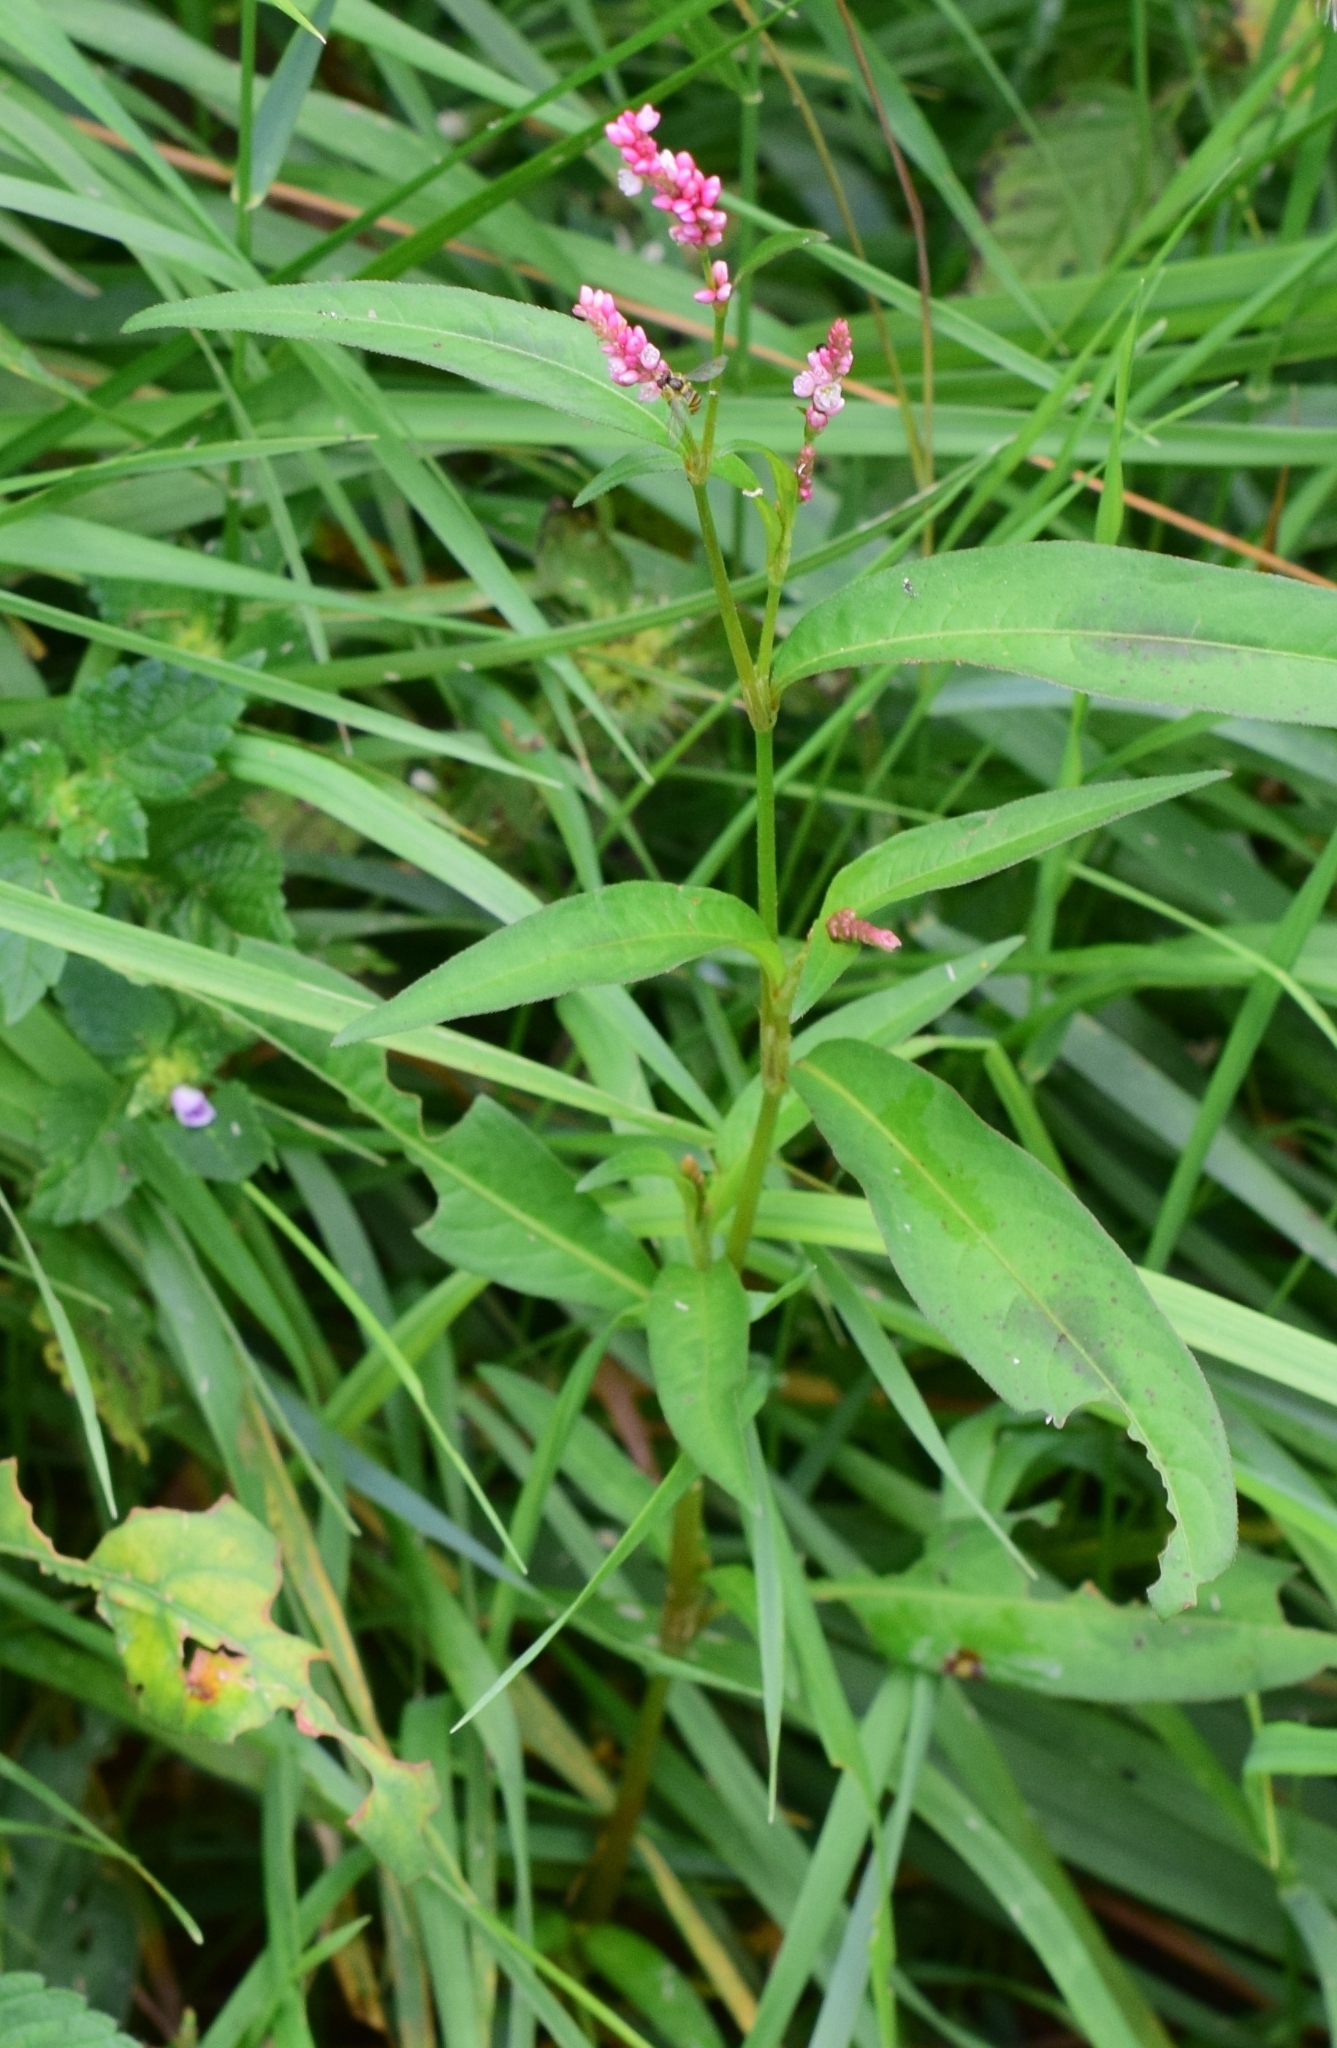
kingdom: Plantae
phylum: Tracheophyta
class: Magnoliopsida
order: Caryophyllales
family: Polygonaceae
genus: Persicaria
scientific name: Persicaria maculosa
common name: Redshank
